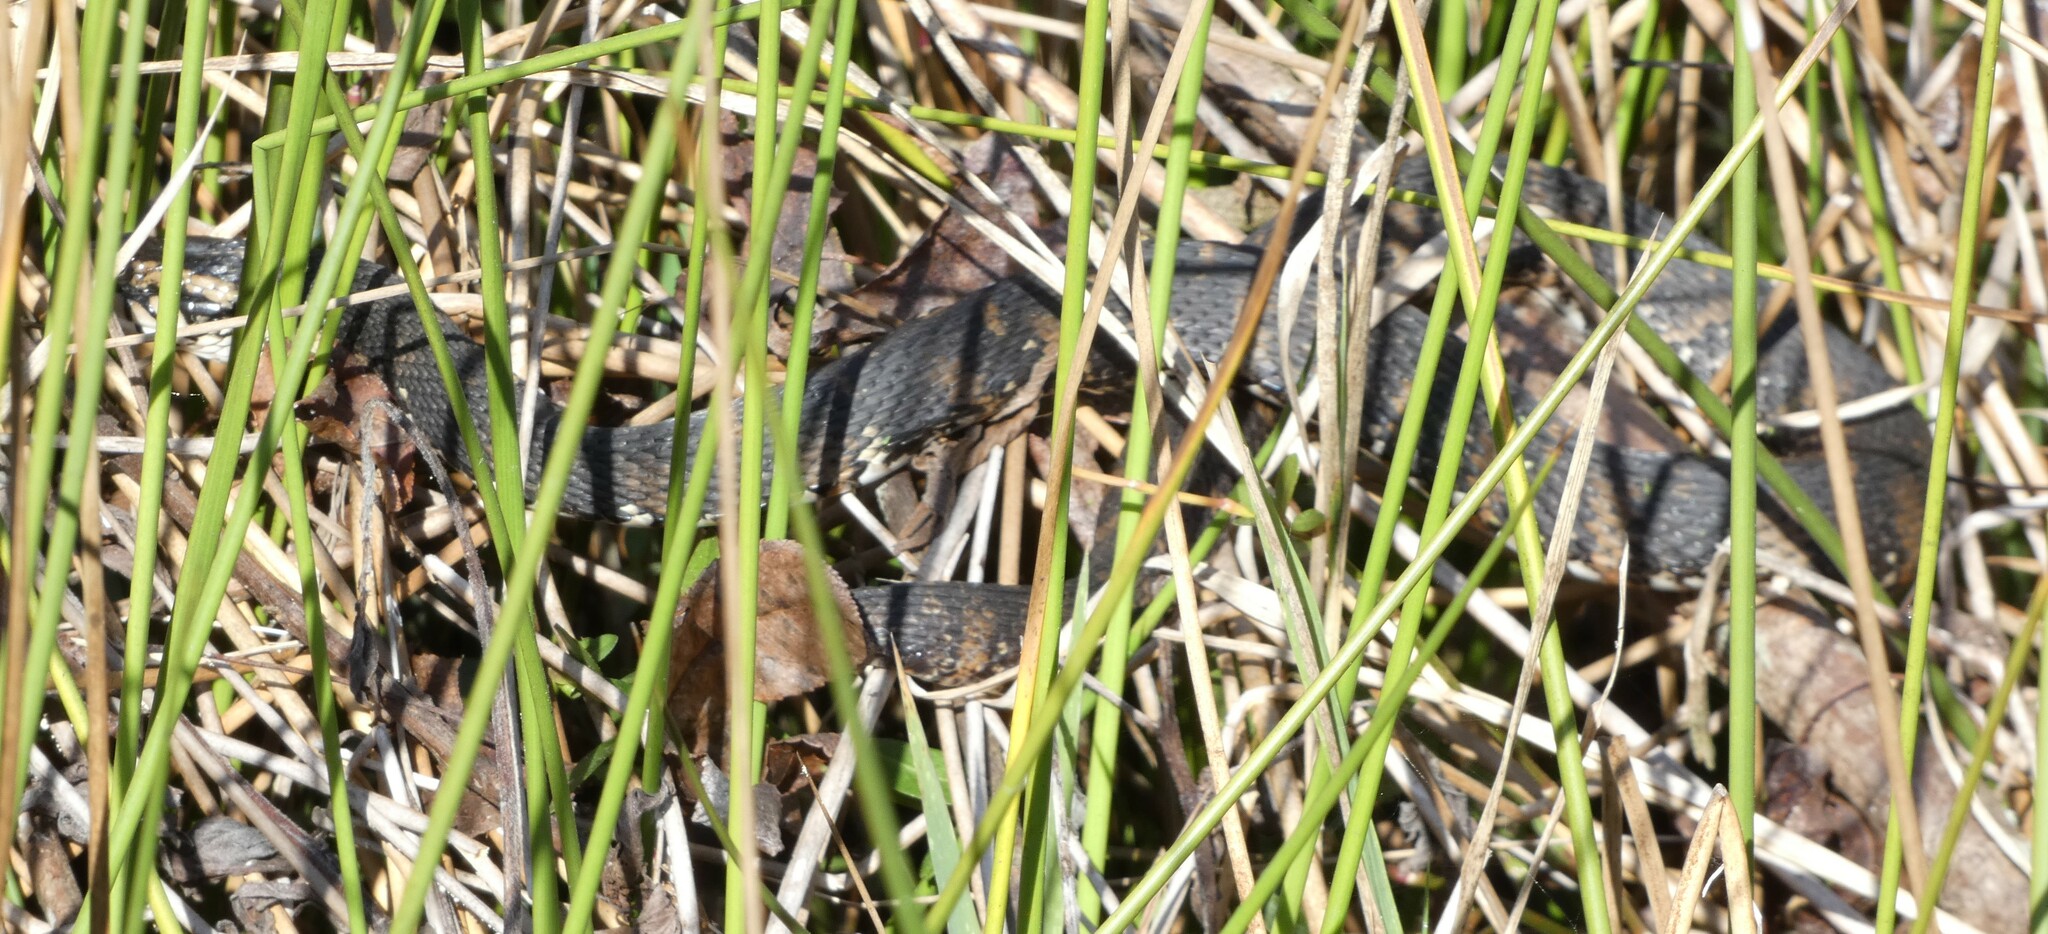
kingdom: Animalia
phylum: Chordata
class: Squamata
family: Colubridae
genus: Nerodia
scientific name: Nerodia fasciata
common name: Southern water snake
